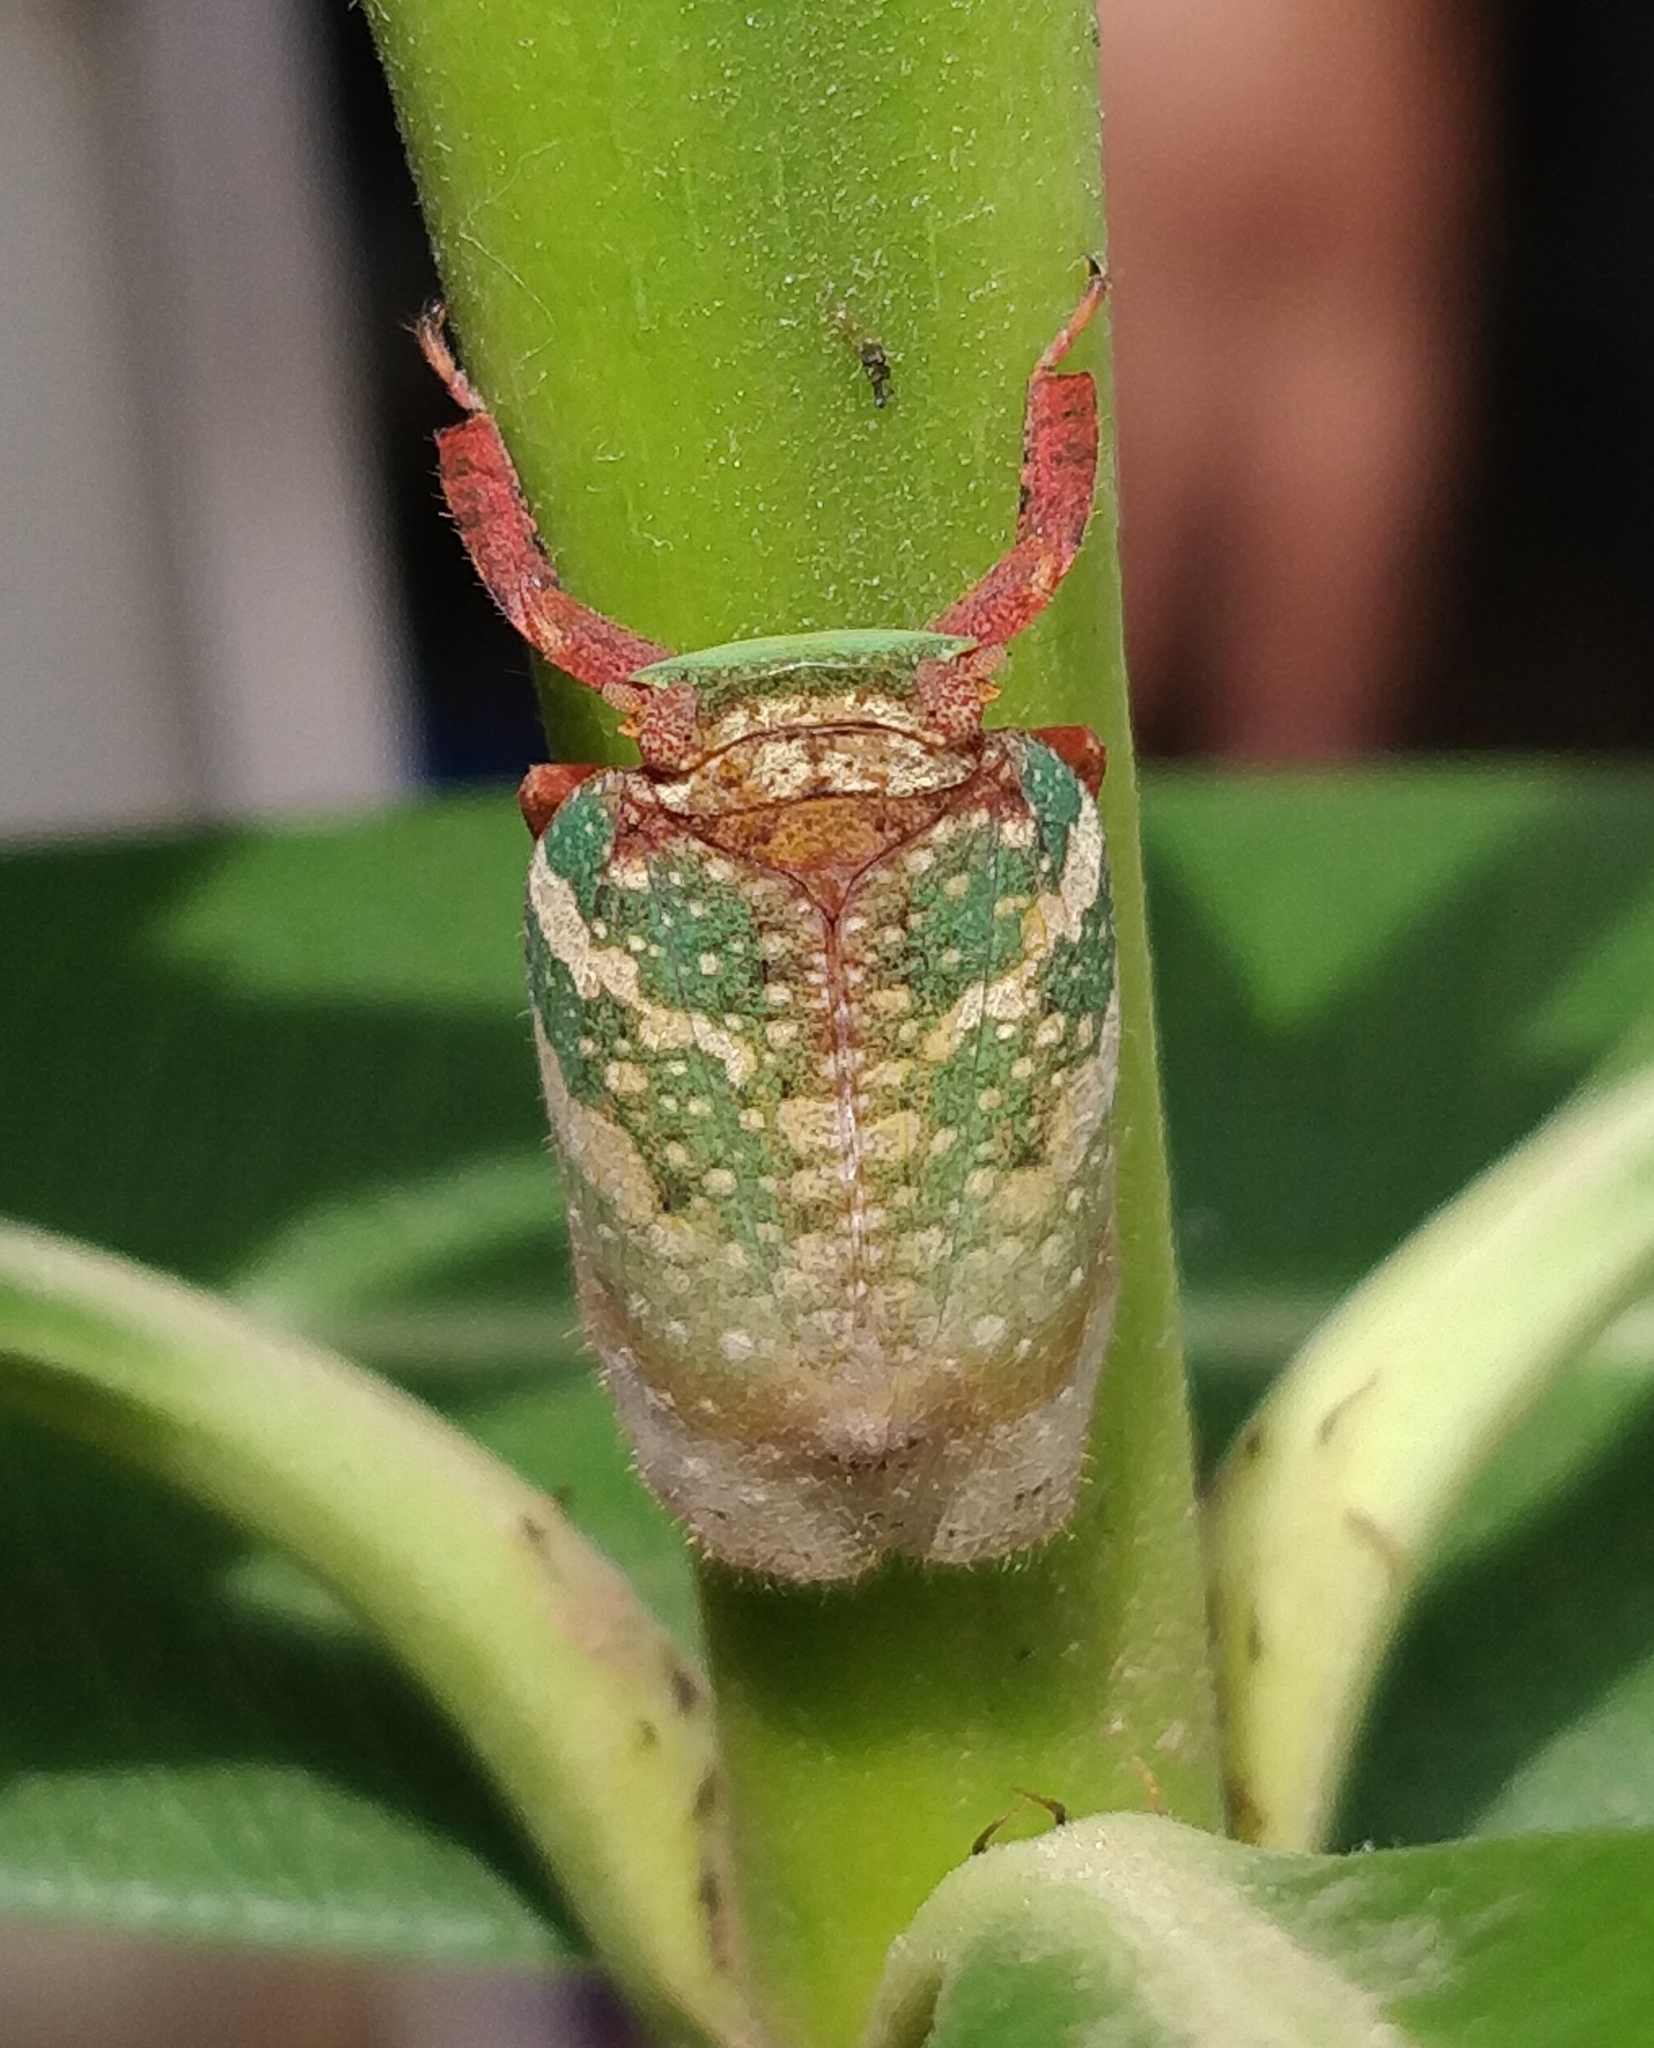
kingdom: Animalia
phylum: Arthropoda
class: Insecta
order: Hemiptera
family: Eurybrachidae
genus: Eurybrachys
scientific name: Eurybrachys tomentosa
